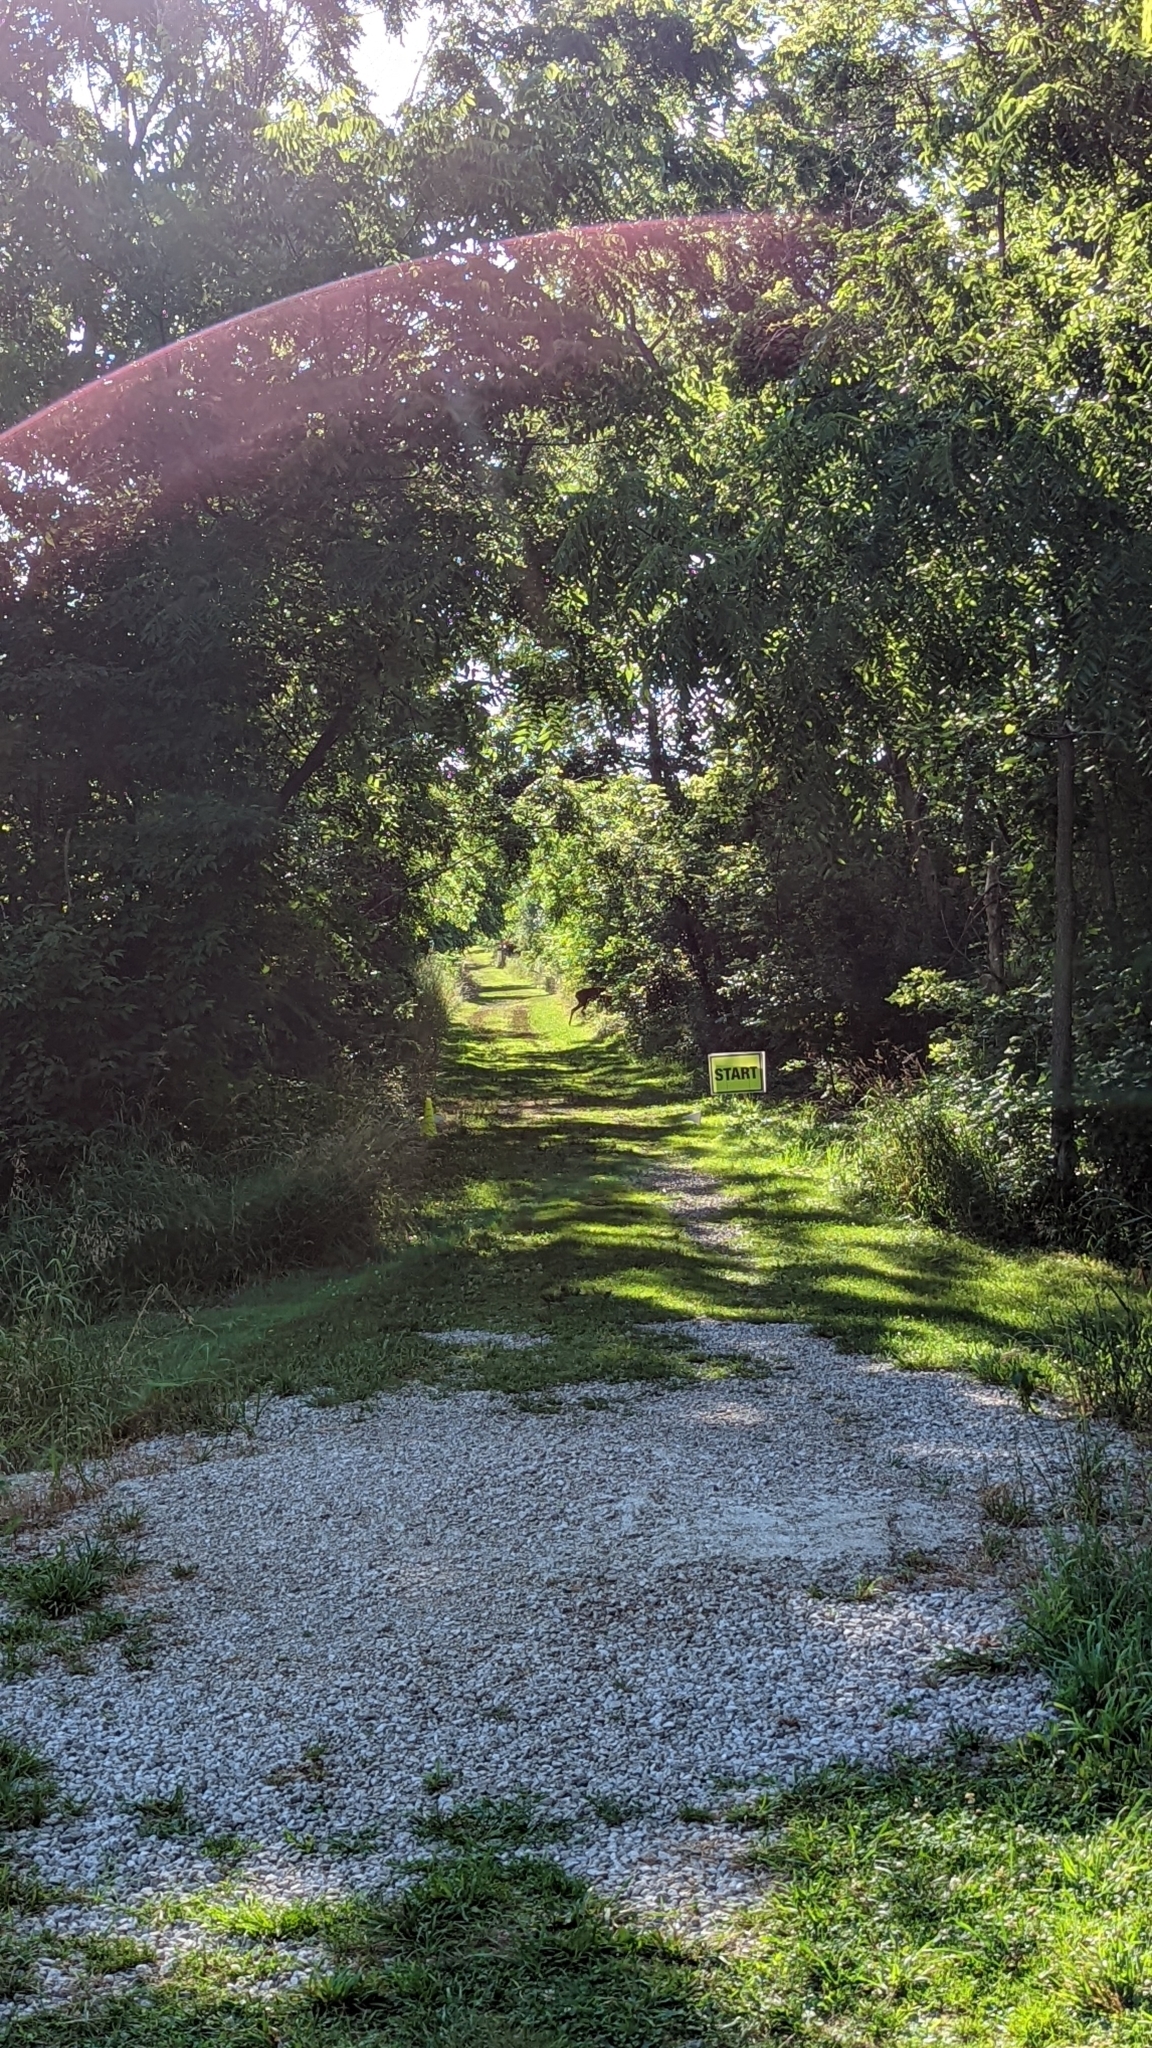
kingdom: Animalia
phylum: Chordata
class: Mammalia
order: Artiodactyla
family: Cervidae
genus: Odocoileus
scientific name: Odocoileus virginianus
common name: White-tailed deer
